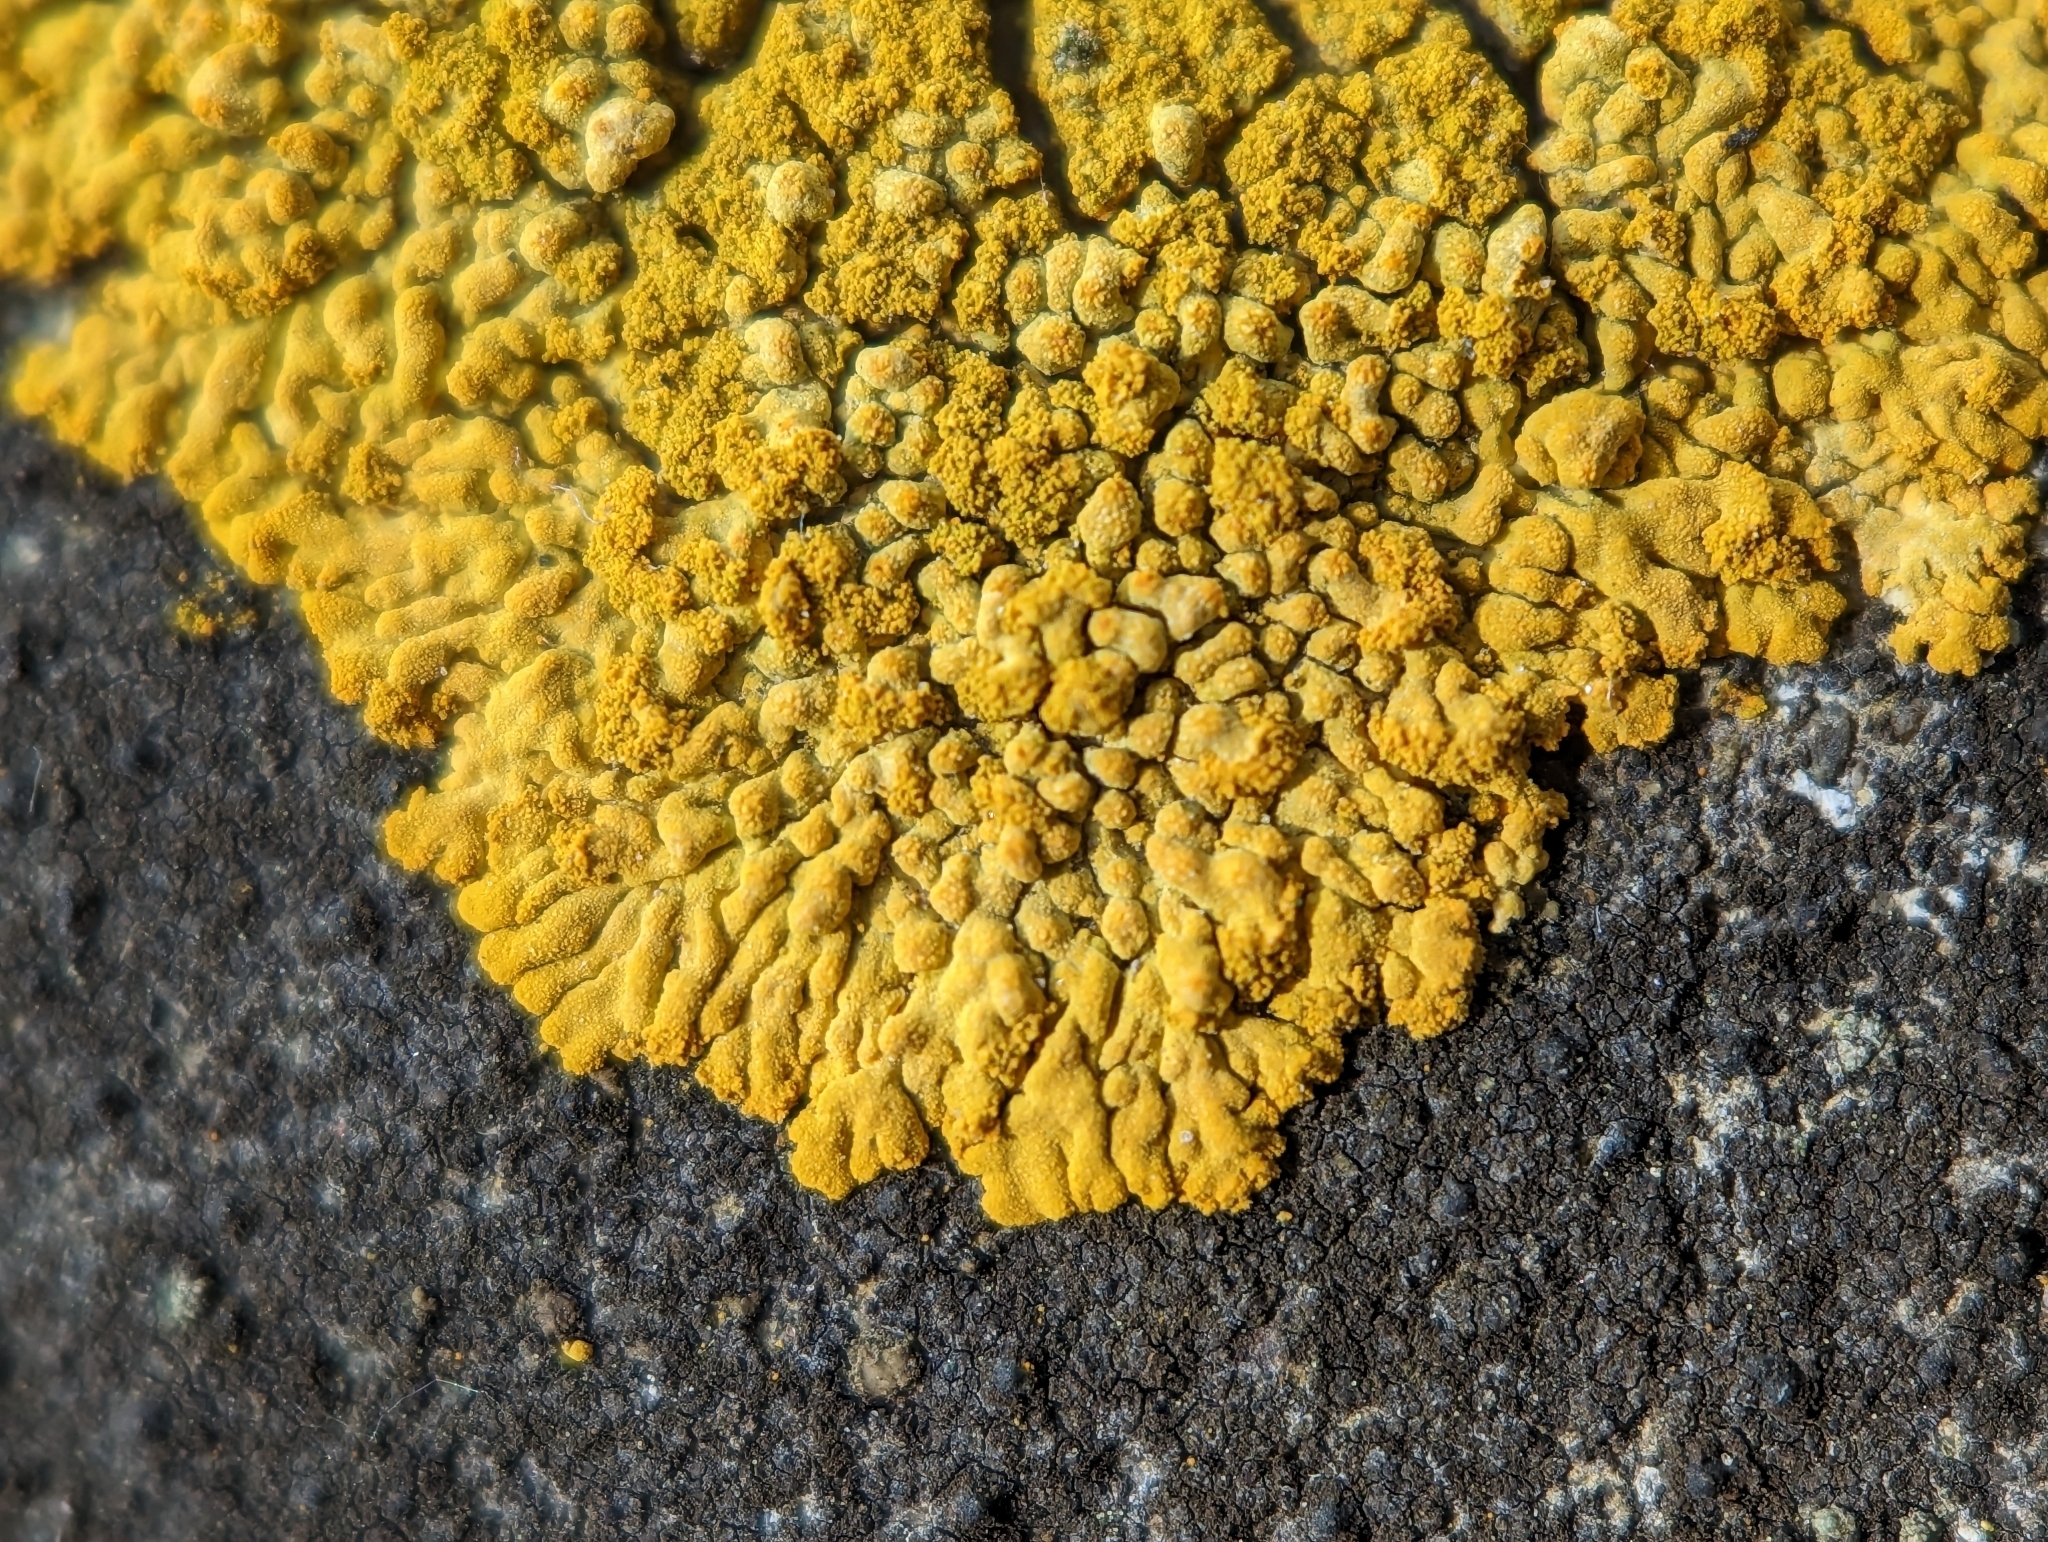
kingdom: Fungi
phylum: Ascomycota
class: Lecanoromycetes
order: Teloschistales
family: Teloschistaceae
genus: Calogaya
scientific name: Calogaya decipiens
